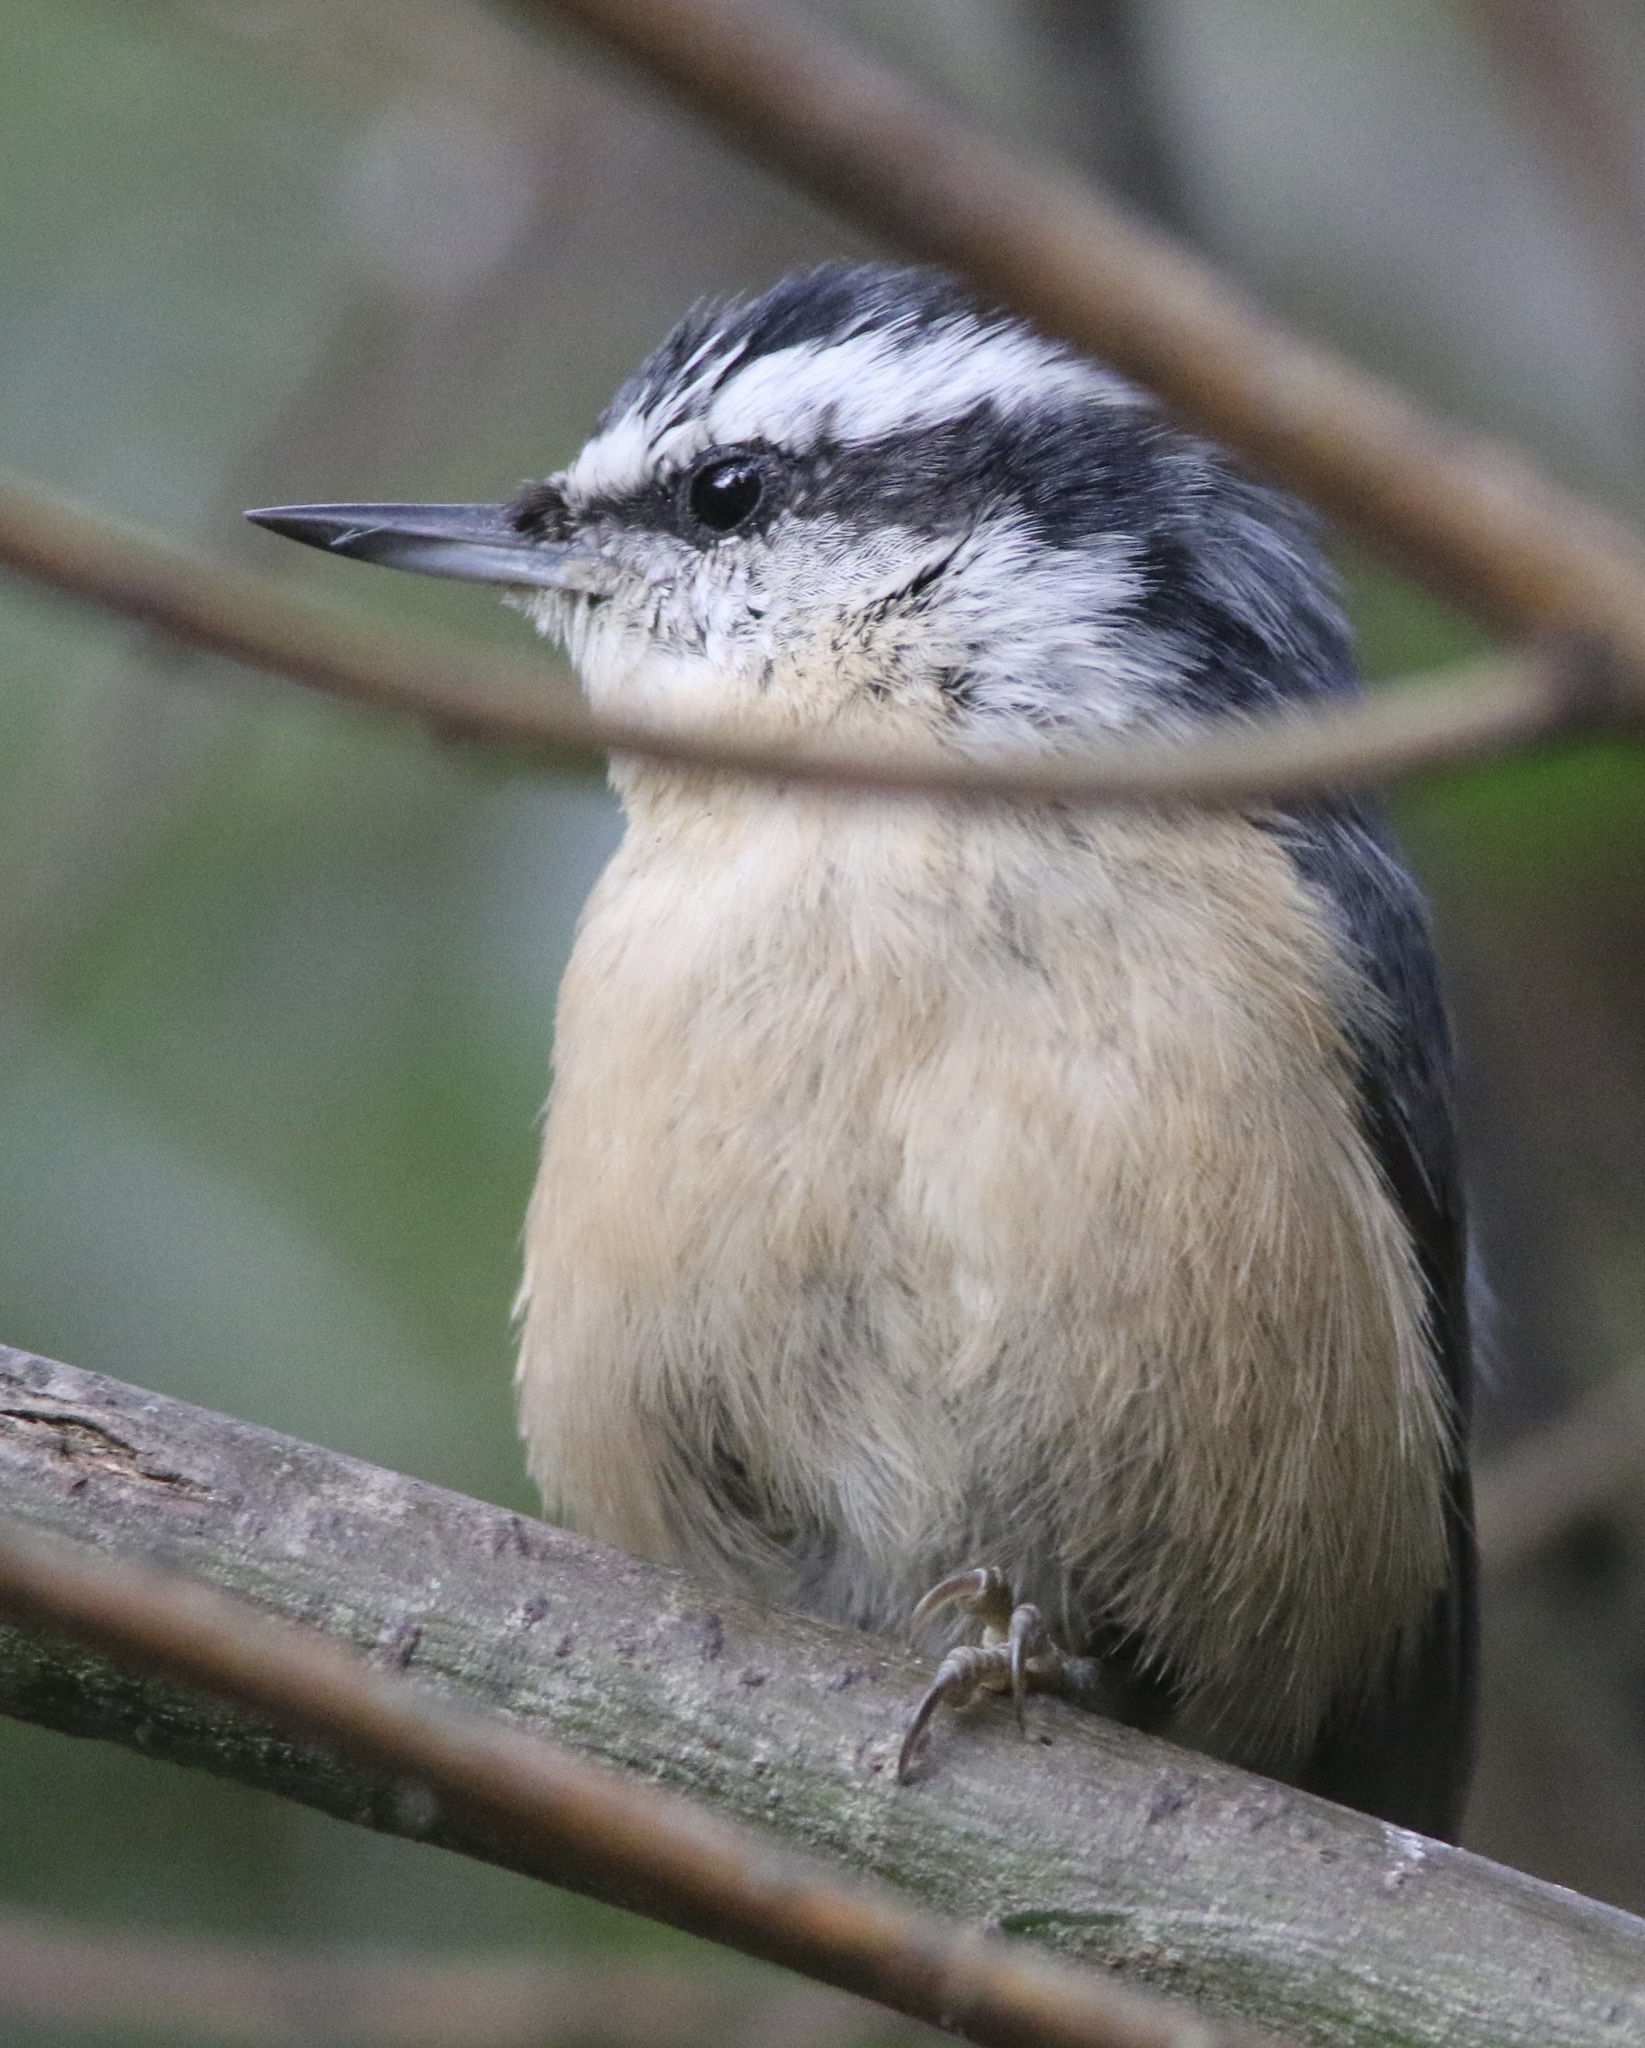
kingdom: Animalia
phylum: Chordata
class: Aves
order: Passeriformes
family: Sittidae
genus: Sitta
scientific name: Sitta canadensis
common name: Red-breasted nuthatch
